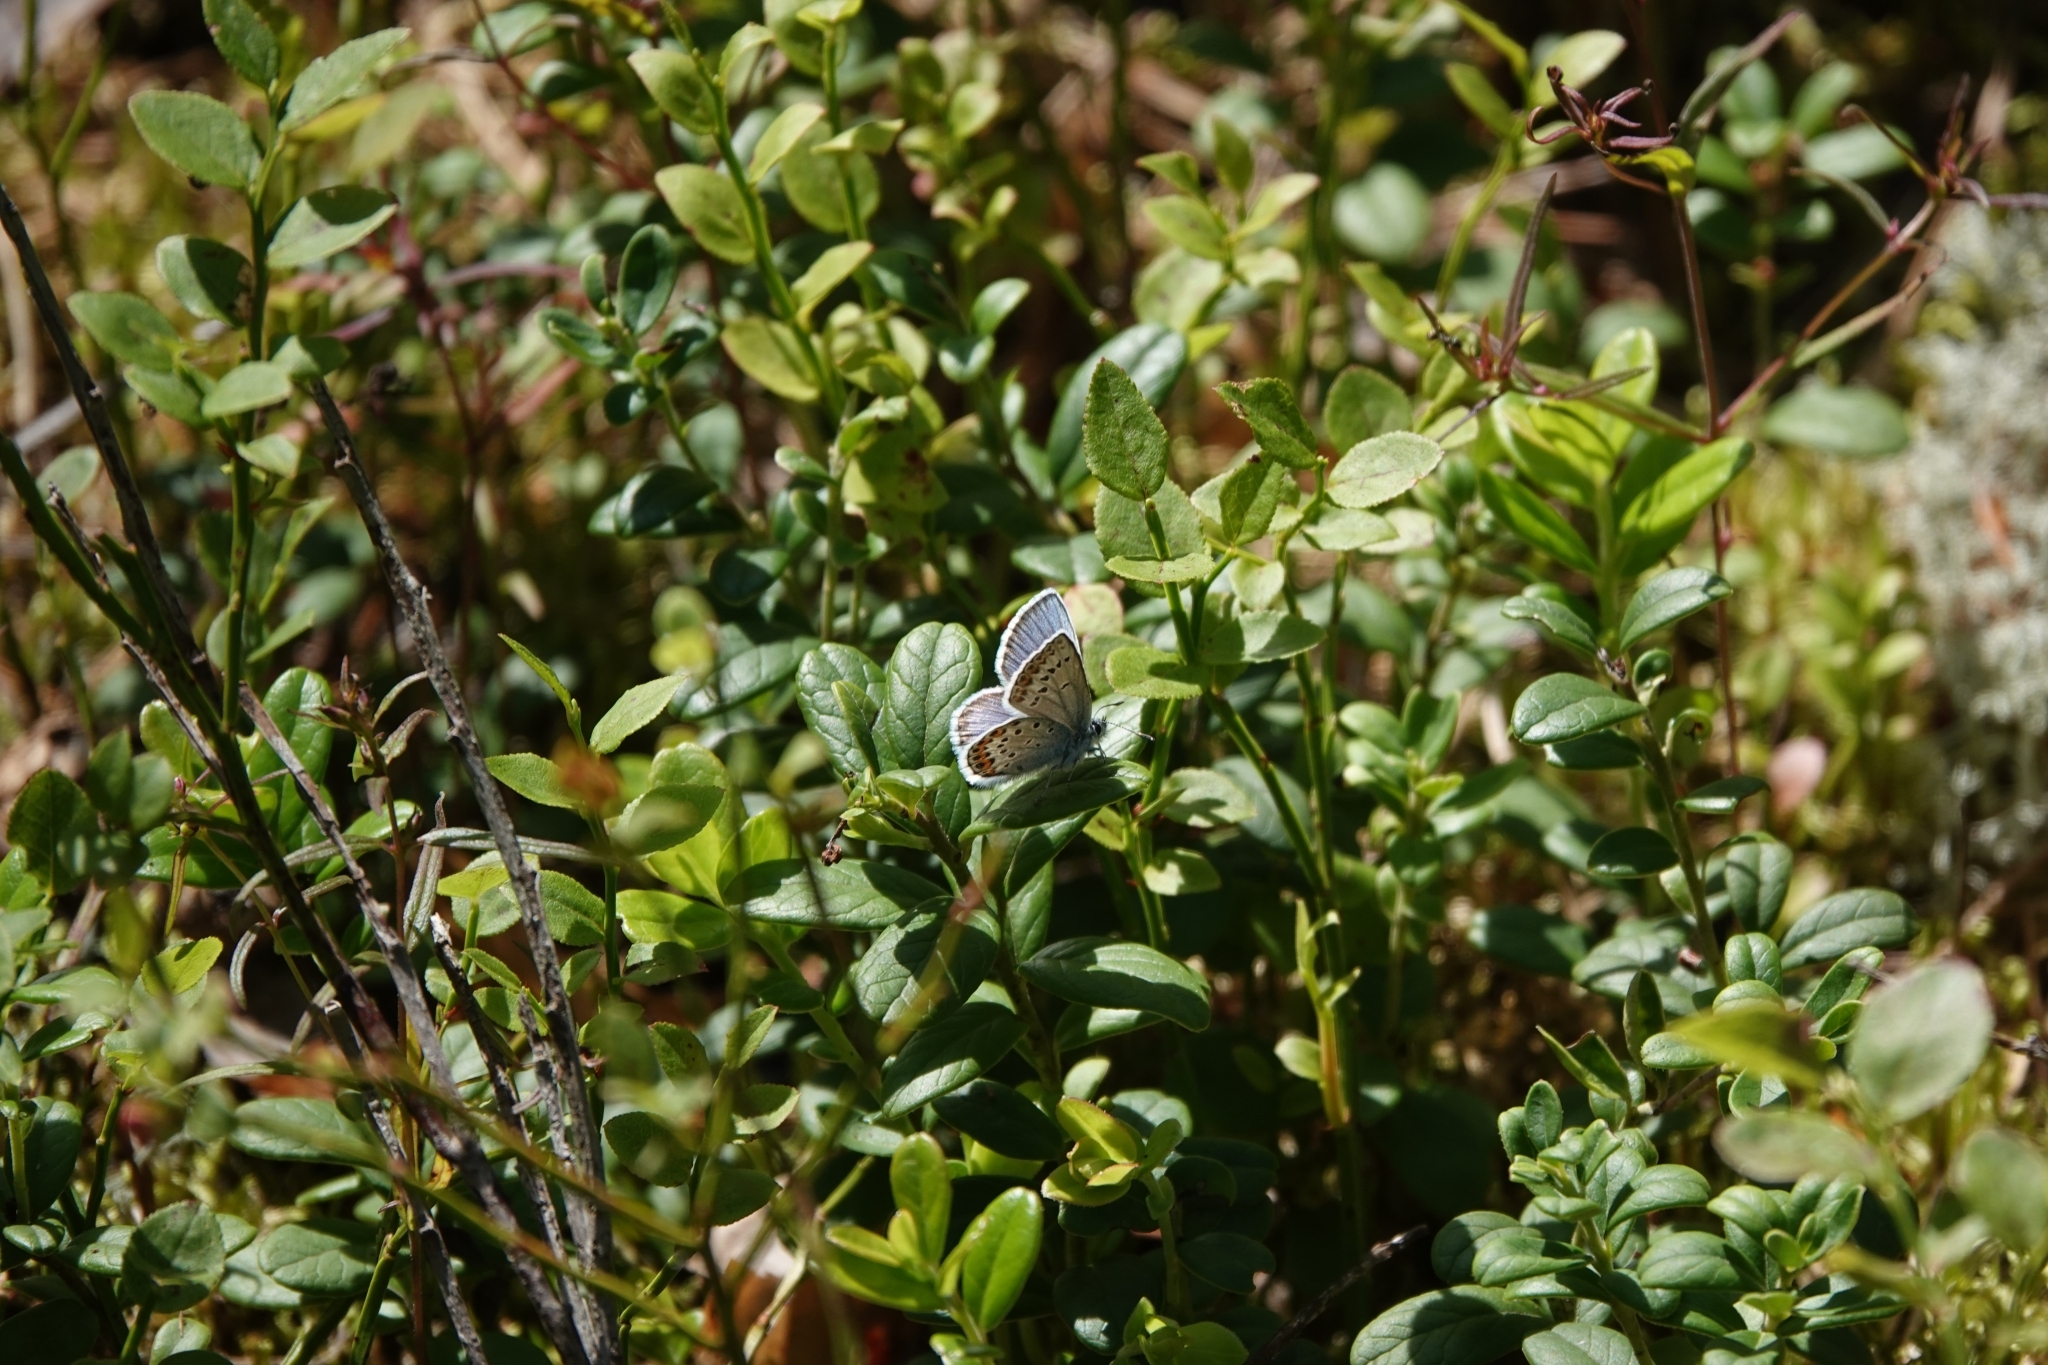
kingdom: Animalia
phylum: Arthropoda
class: Insecta
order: Lepidoptera
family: Lycaenidae
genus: Lycaeides
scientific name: Lycaeides idas
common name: Northern blue
